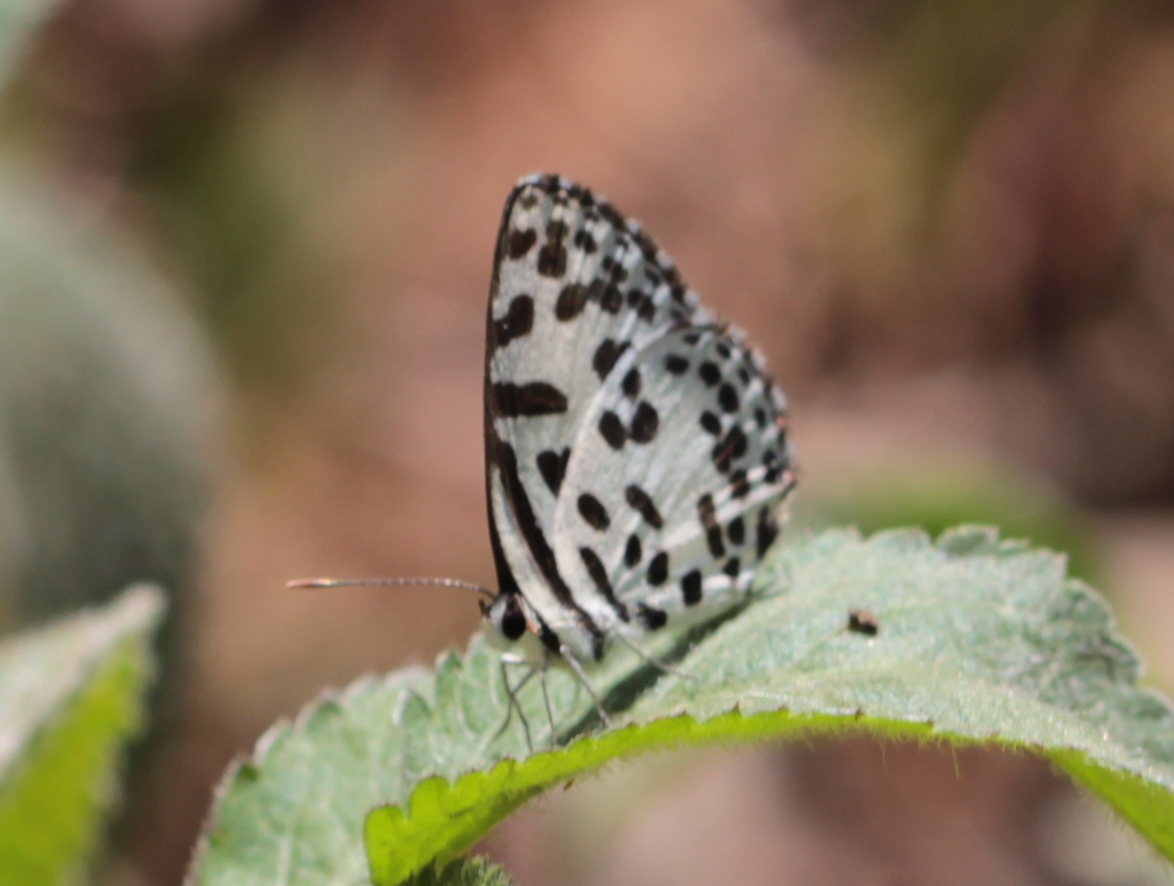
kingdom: Animalia
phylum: Arthropoda
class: Insecta
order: Lepidoptera
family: Lycaenidae
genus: Castalius
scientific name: Castalius rosimon
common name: Common pierrot
